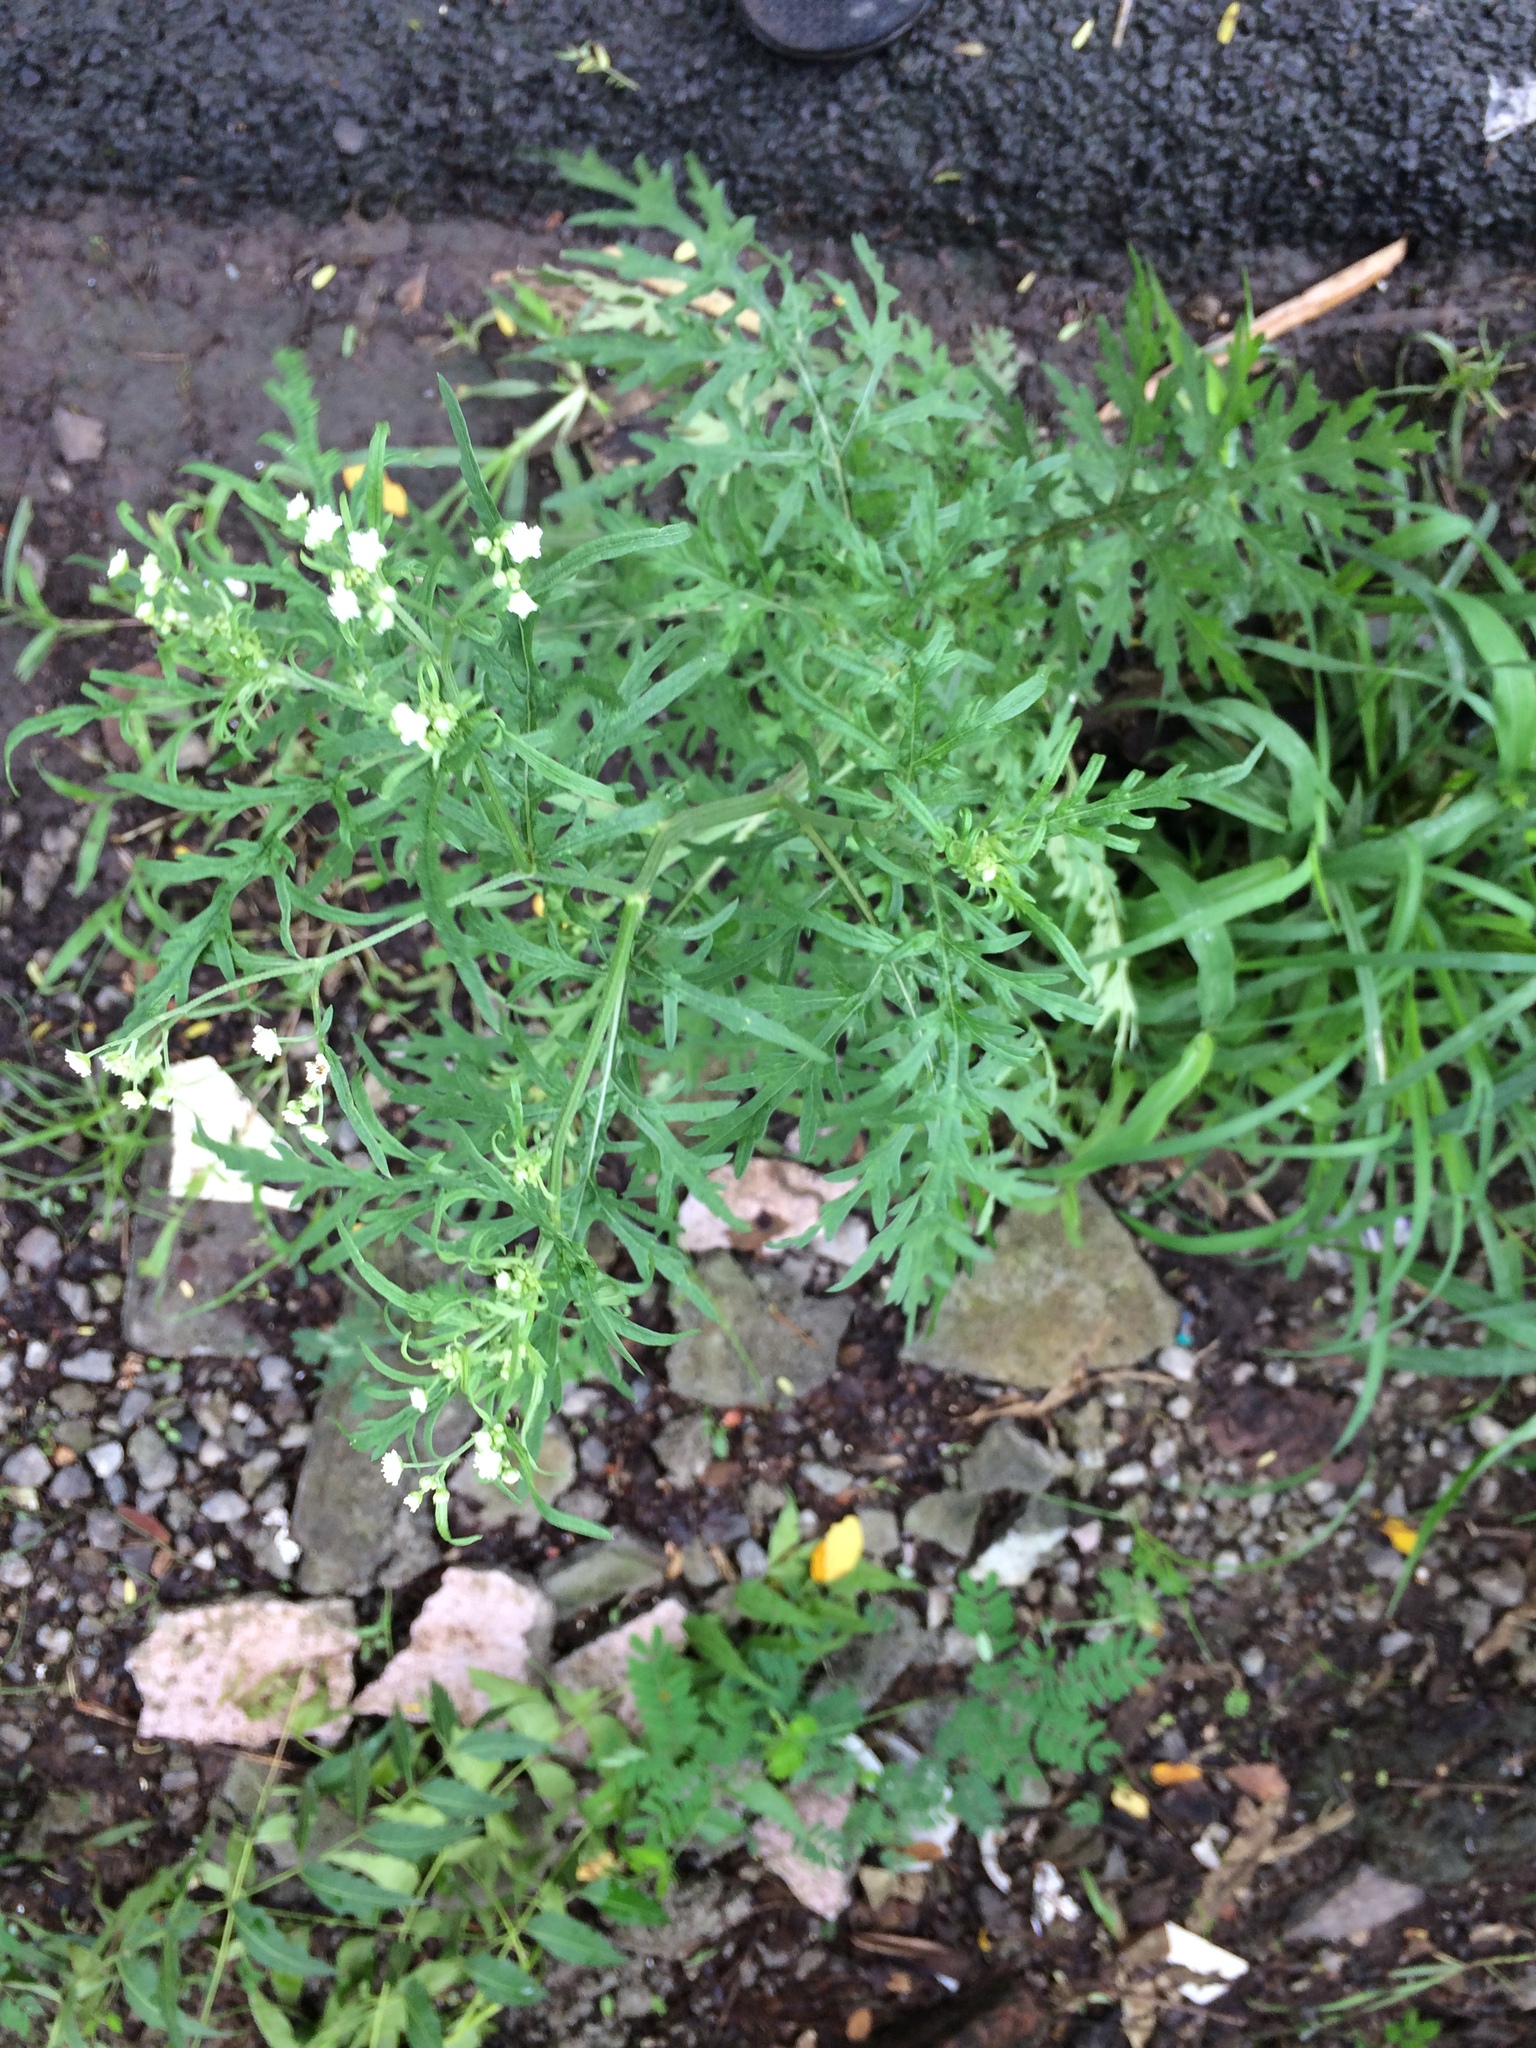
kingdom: Plantae
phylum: Tracheophyta
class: Magnoliopsida
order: Asterales
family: Asteraceae
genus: Parthenium
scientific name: Parthenium hysterophorus
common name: Santa maria feverfew
